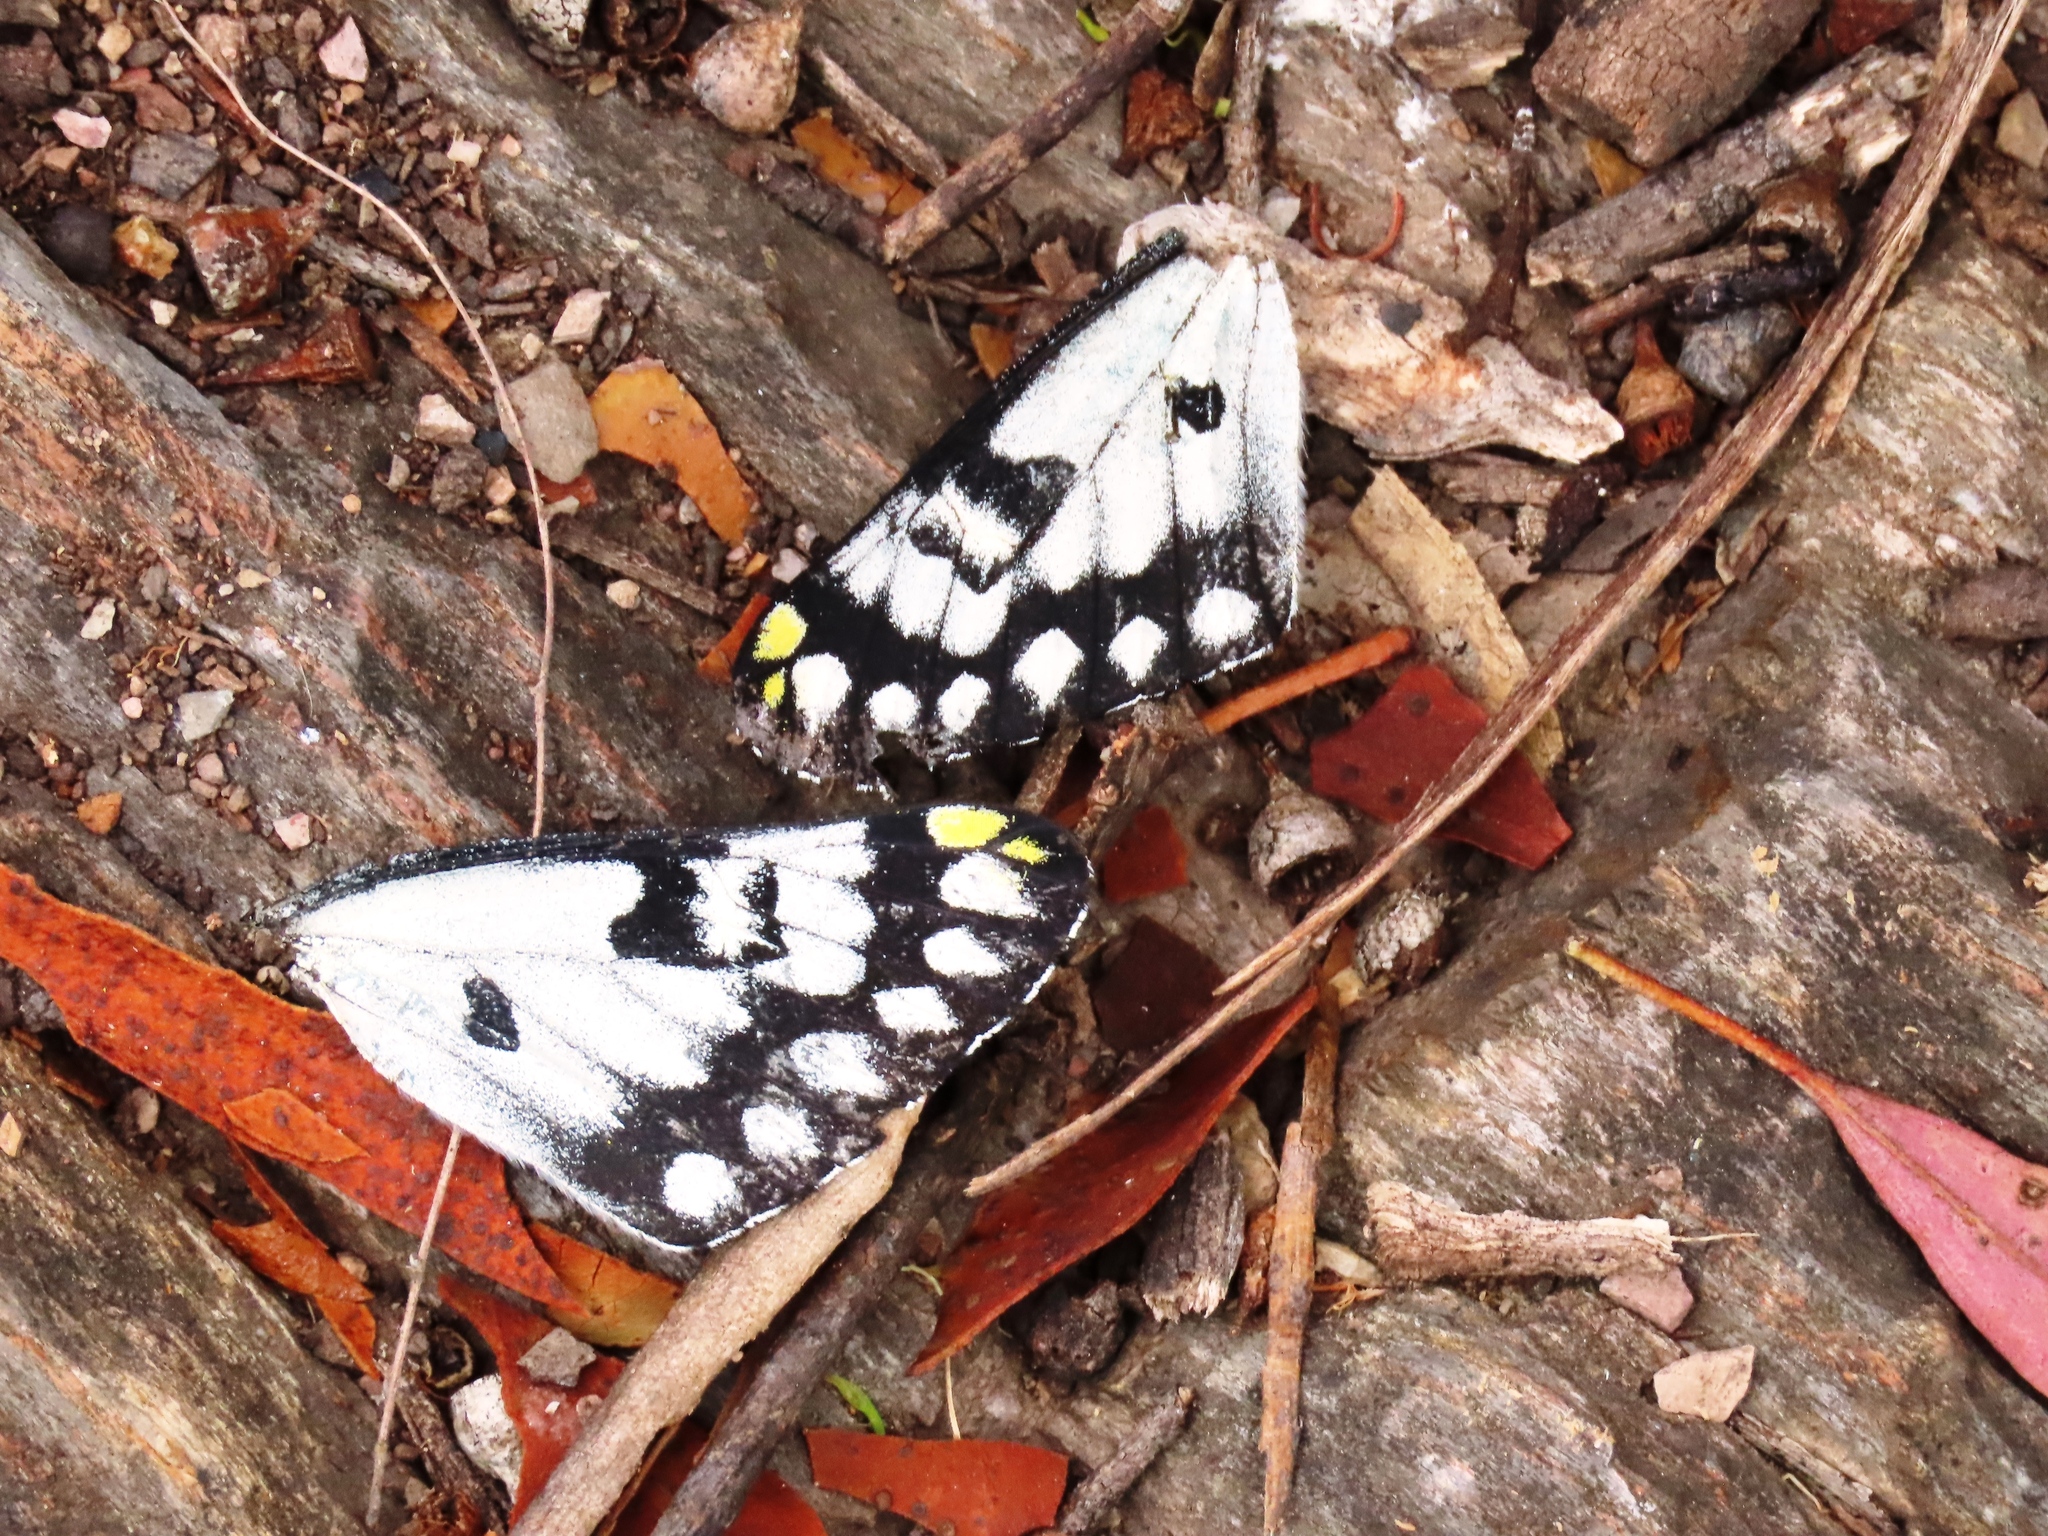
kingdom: Animalia
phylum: Arthropoda
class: Insecta
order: Lepidoptera
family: Pieridae
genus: Delias
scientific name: Delias aganippe
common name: Red-spotted jezebel
